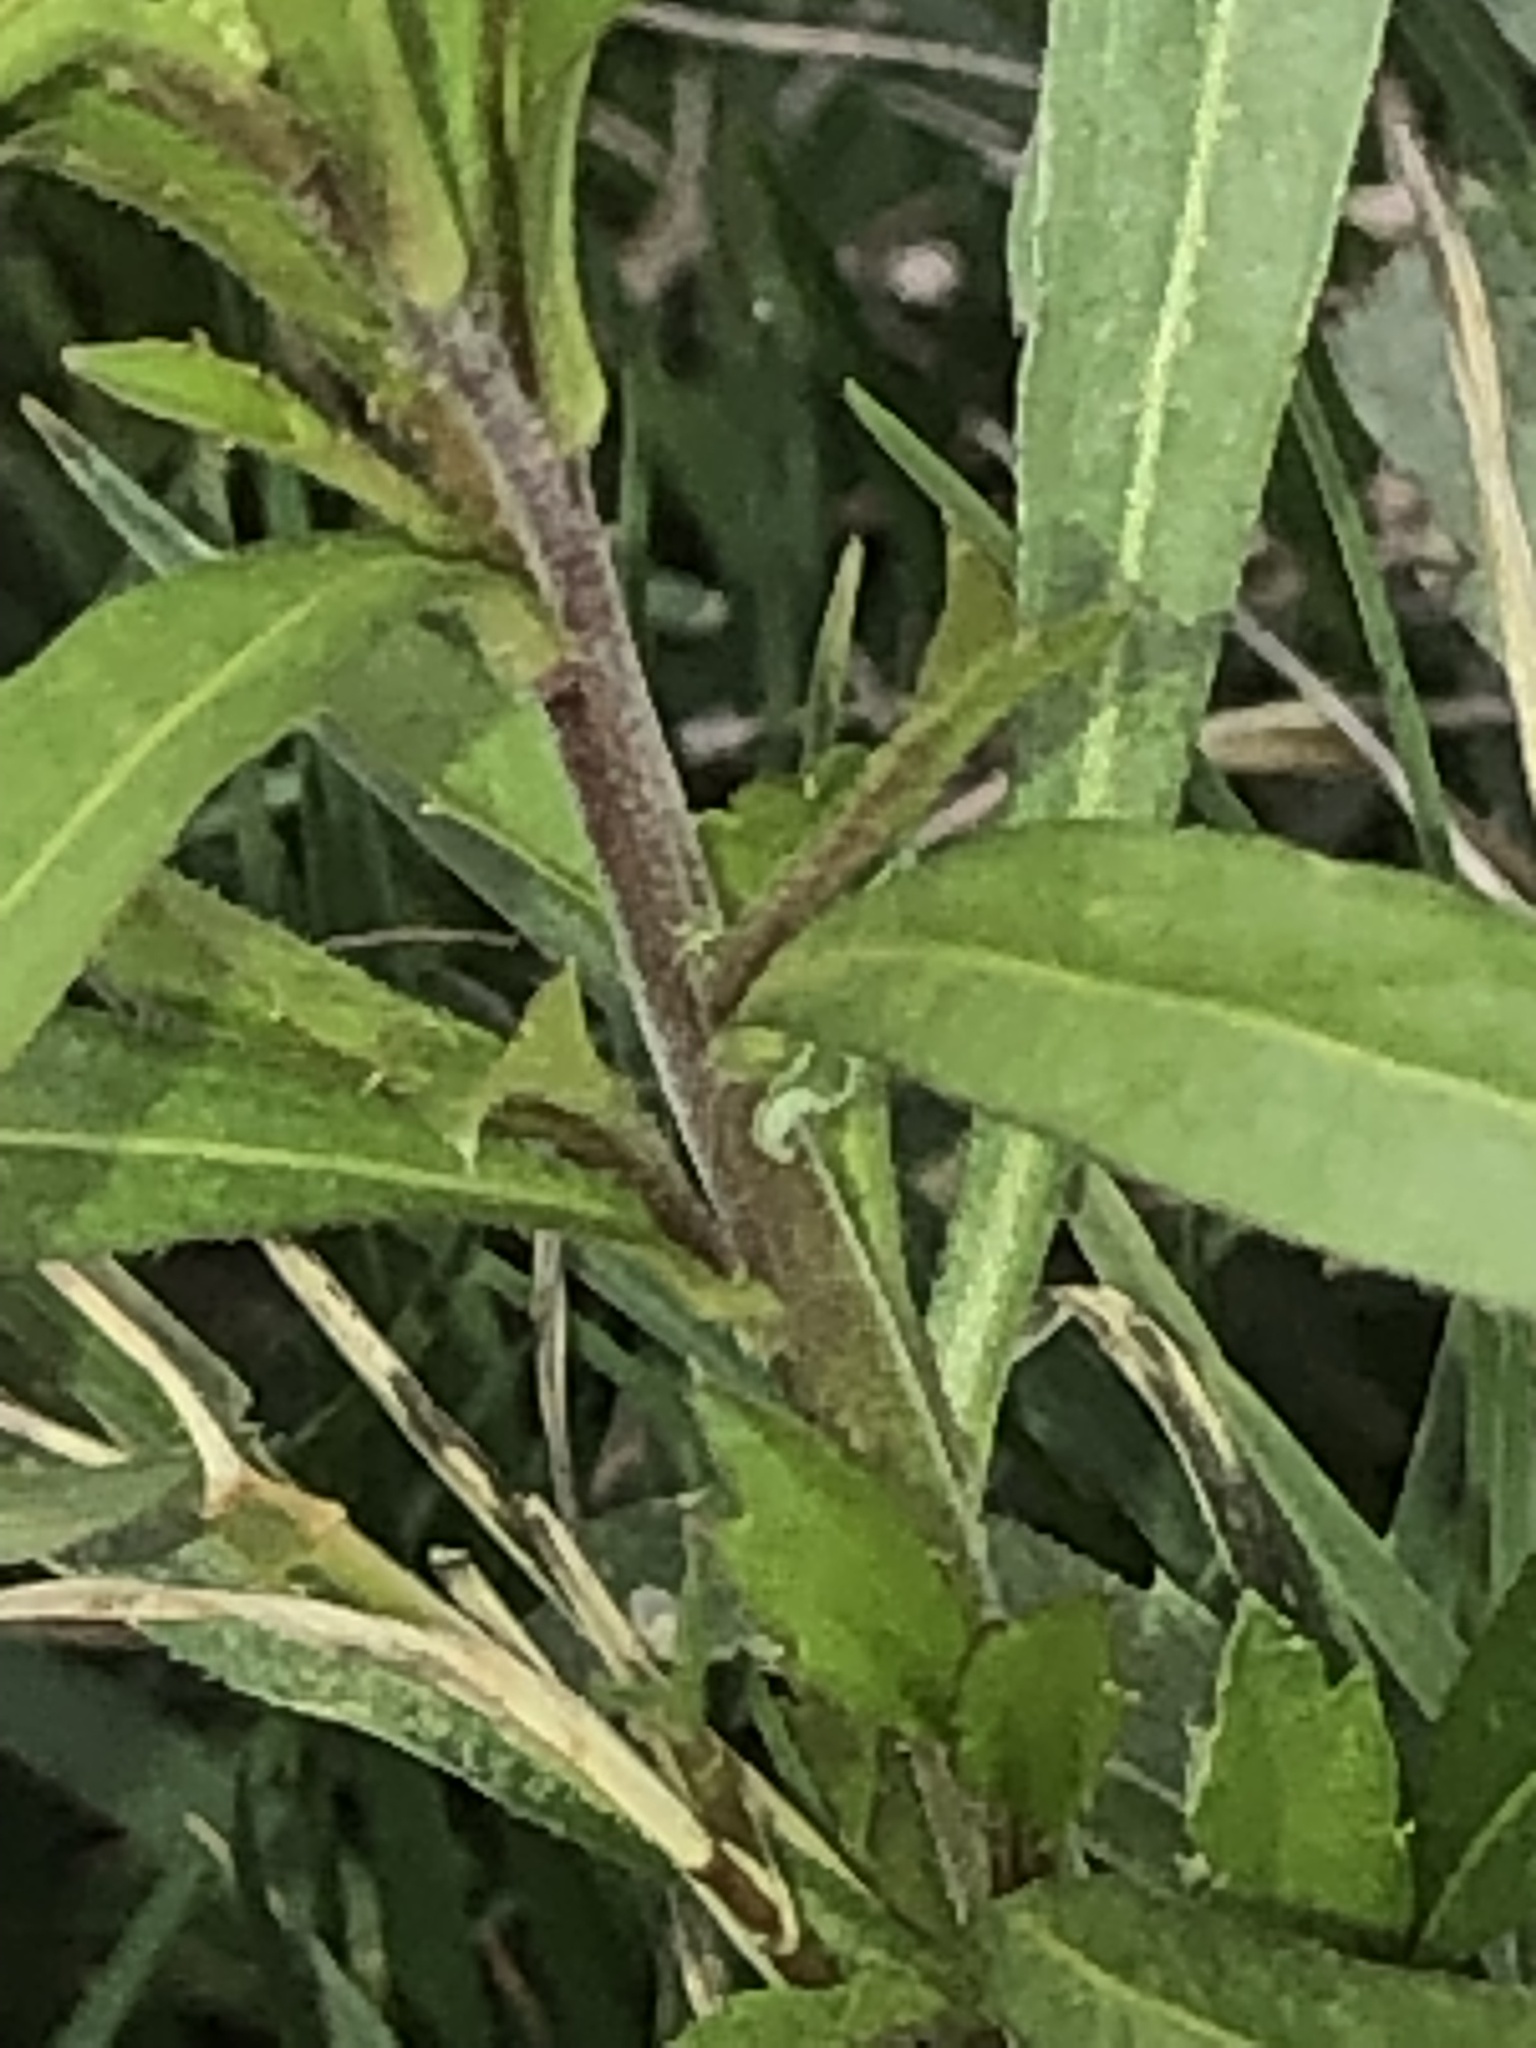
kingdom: Plantae
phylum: Tracheophyta
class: Magnoliopsida
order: Brassicales
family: Brassicaceae
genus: Lepidium
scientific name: Lepidium virginicum
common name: Least pepperwort
